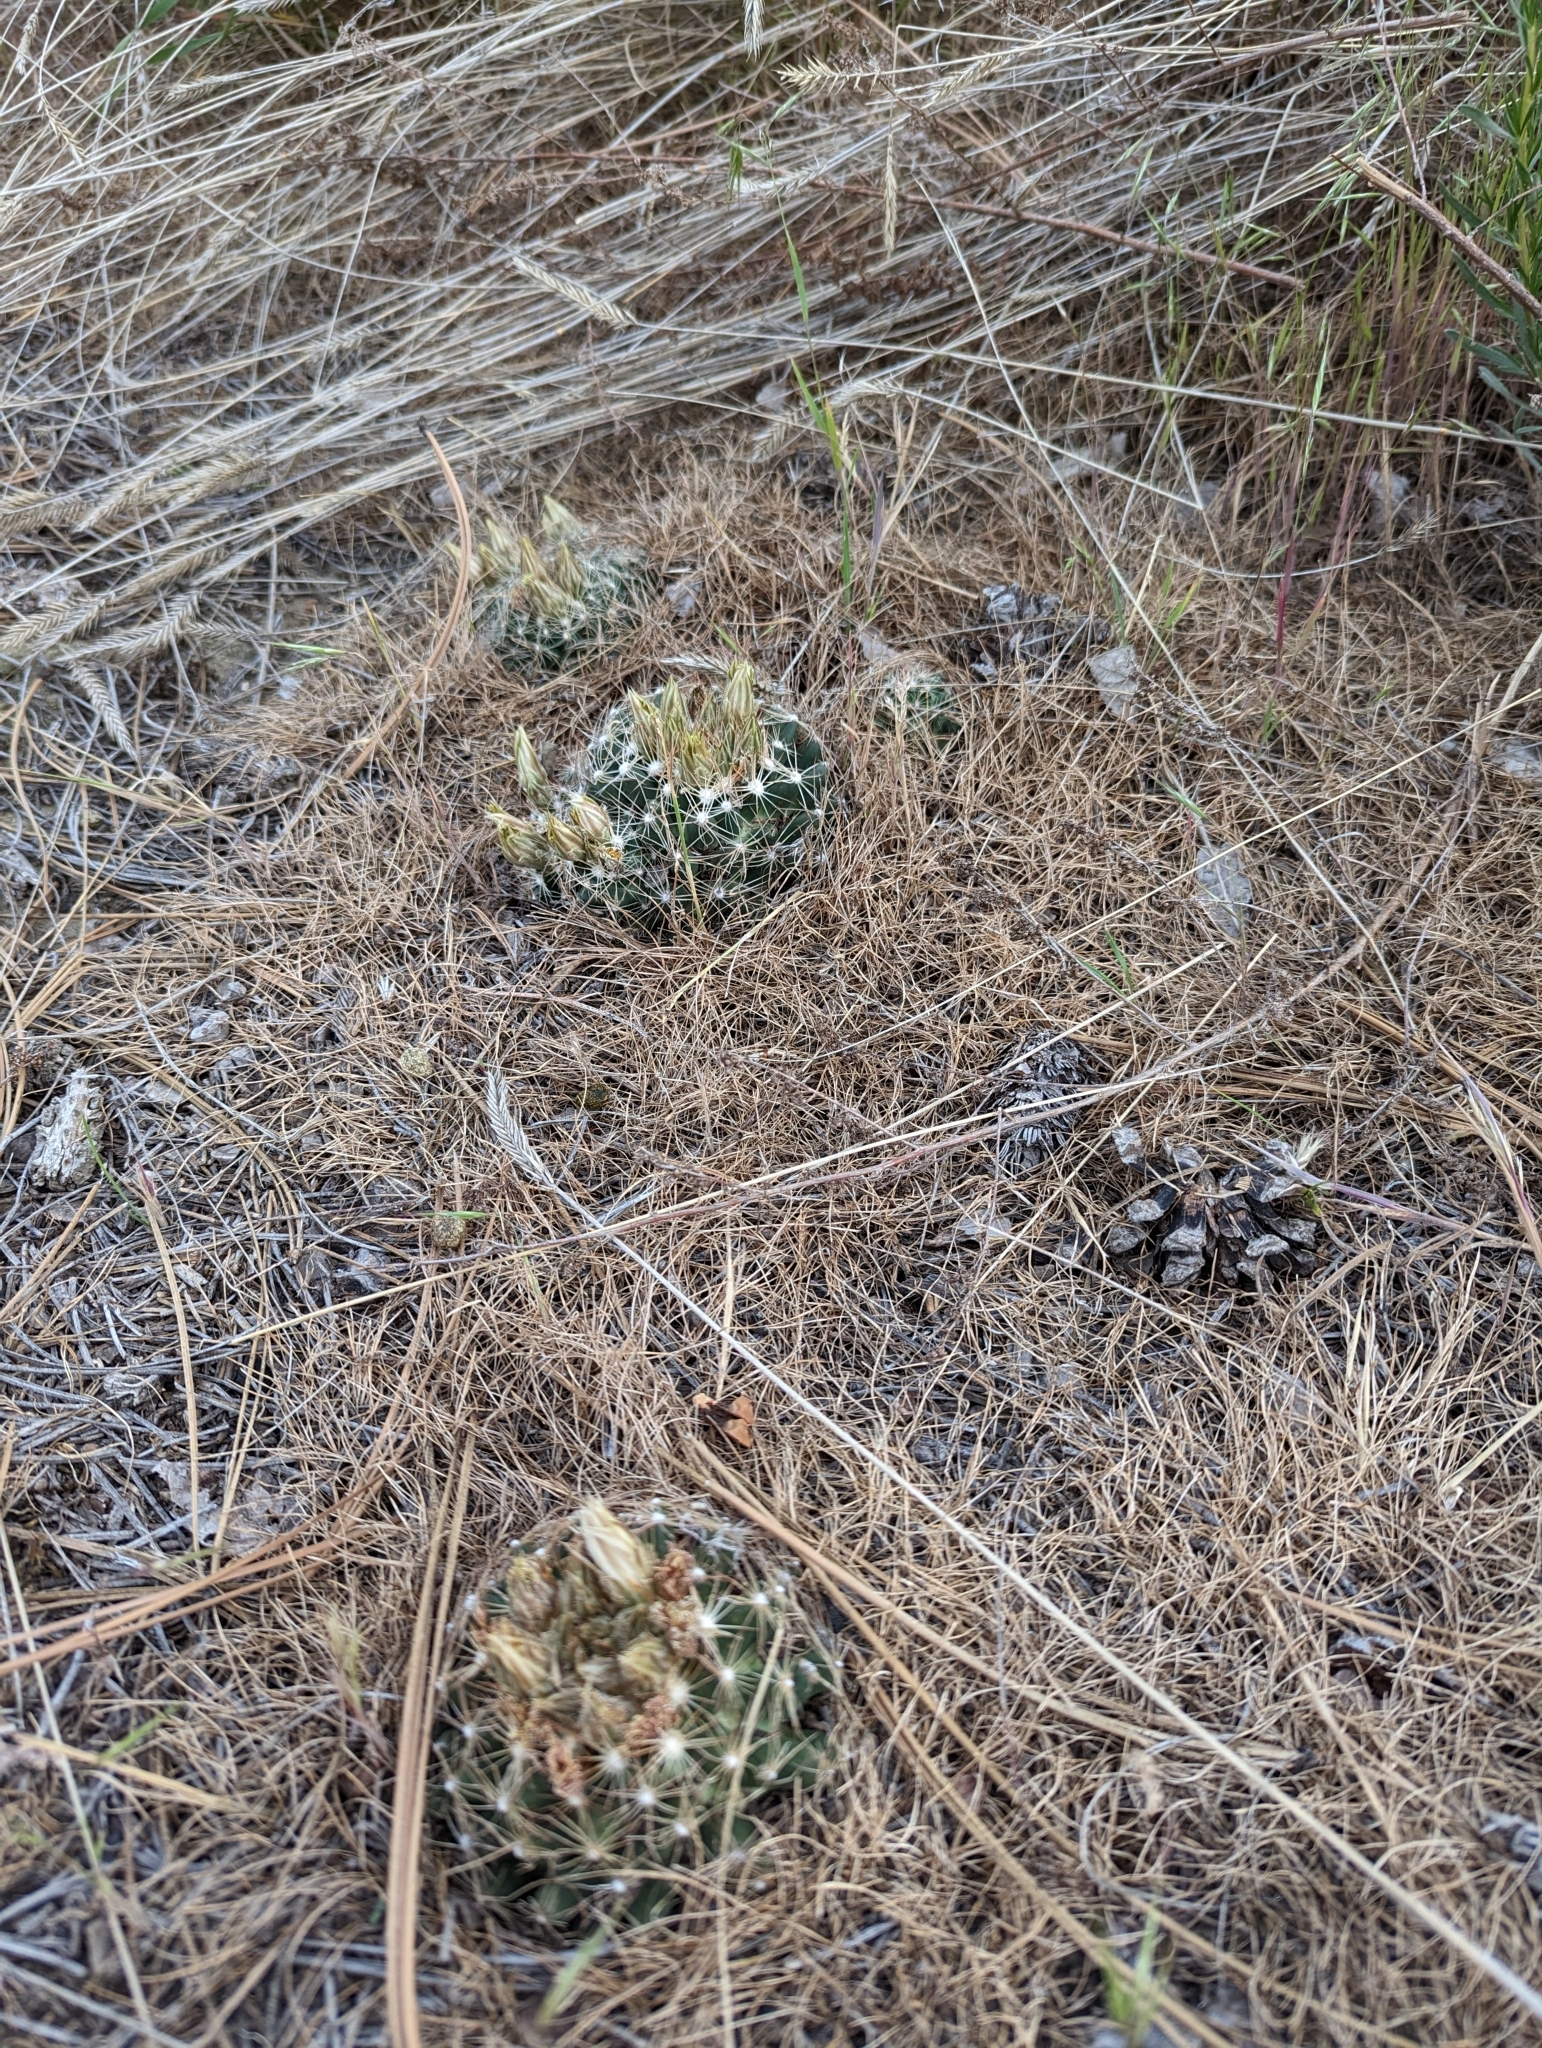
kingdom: Plantae
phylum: Tracheophyta
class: Magnoliopsida
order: Caryophyllales
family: Cactaceae
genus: Pelecyphora
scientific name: Pelecyphora missouriensis
